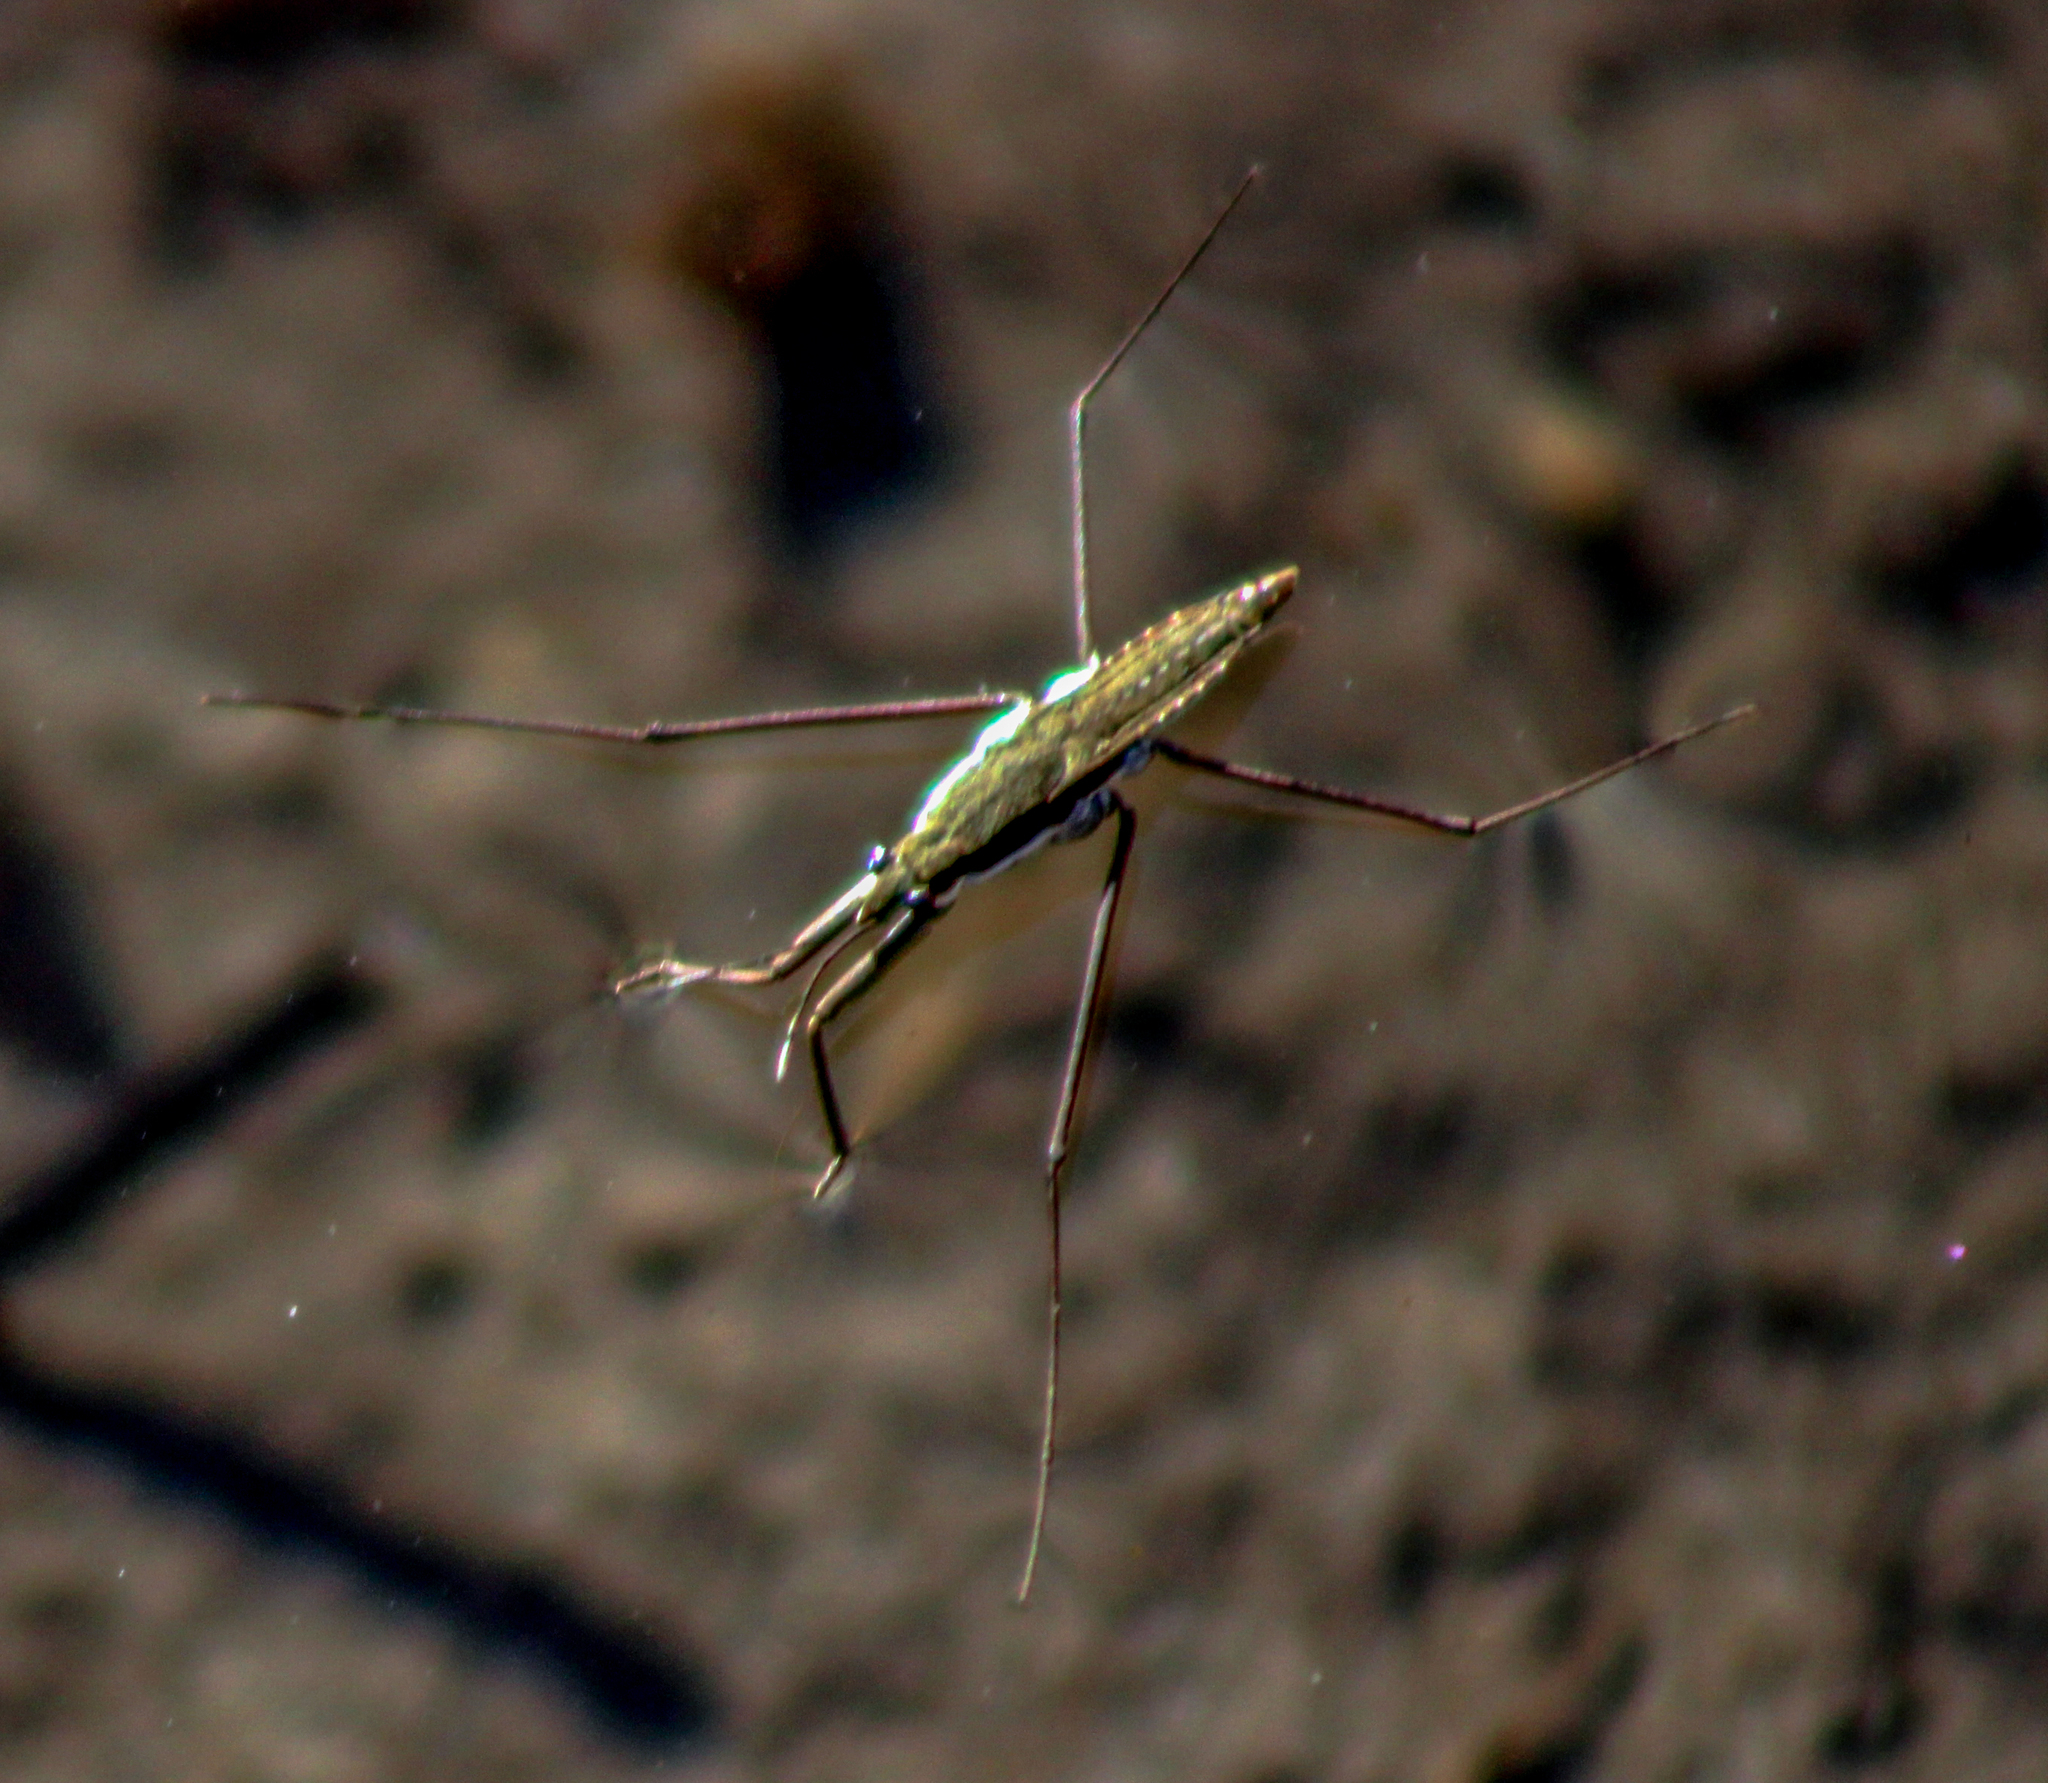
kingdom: Animalia
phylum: Arthropoda
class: Insecta
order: Hemiptera
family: Gerridae
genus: Aquarius
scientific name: Aquarius remigis
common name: Common water strider
